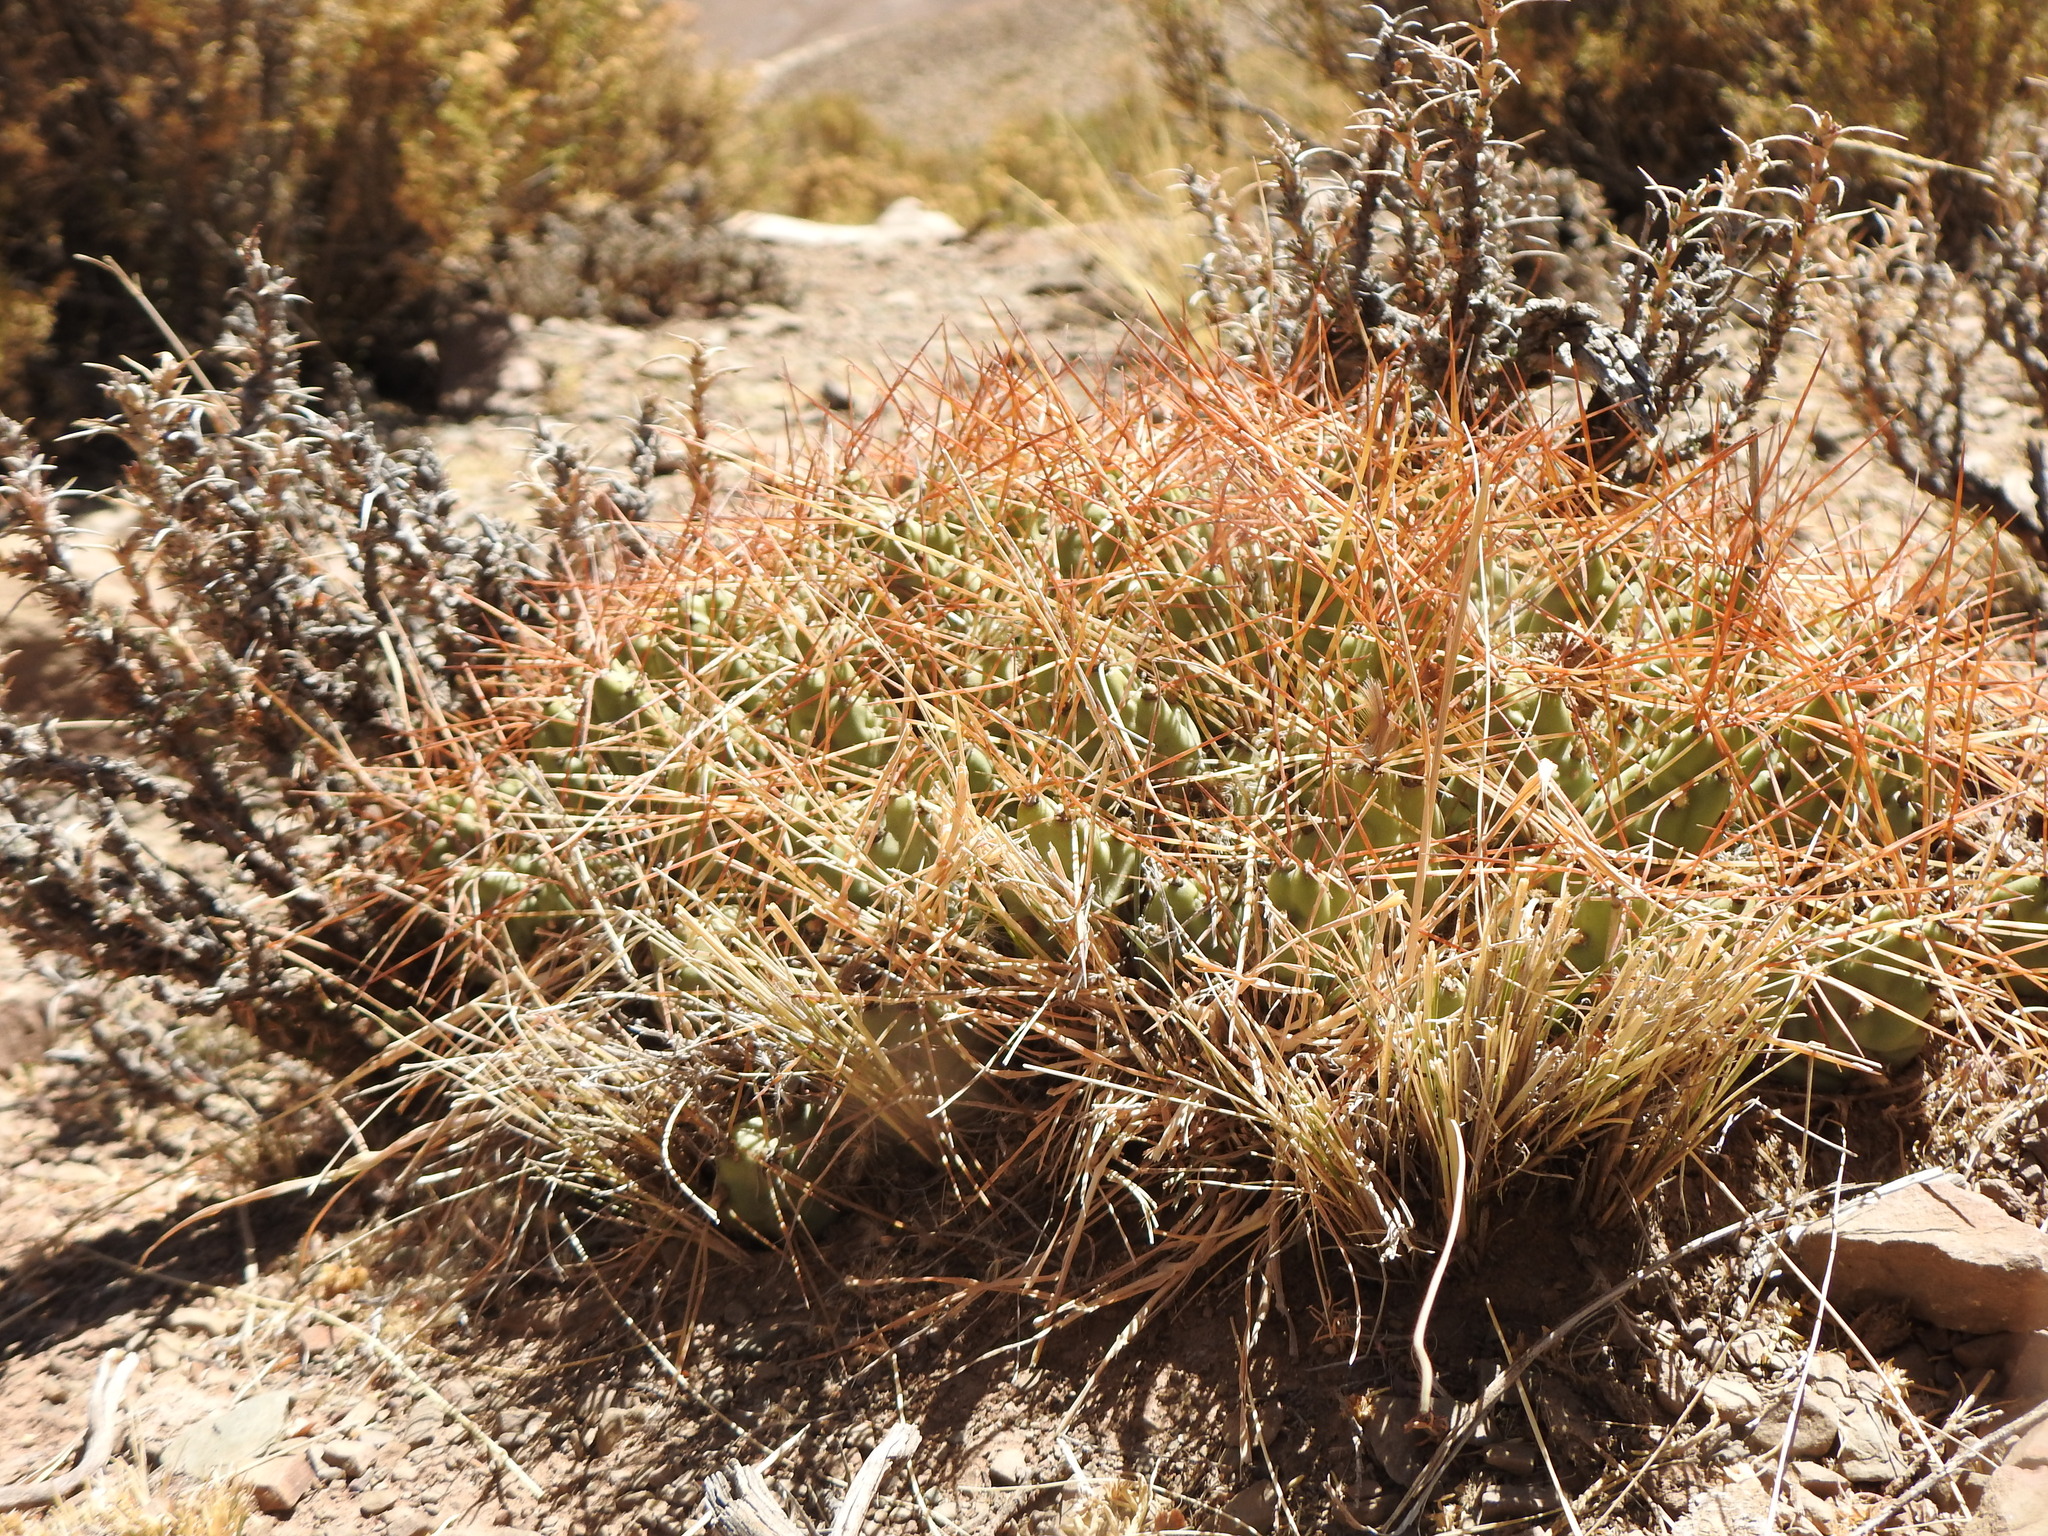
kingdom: Plantae
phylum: Tracheophyta
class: Magnoliopsida
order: Caryophyllales
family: Cactaceae
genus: Cumulopuntia
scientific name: Cumulopuntia boliviana
